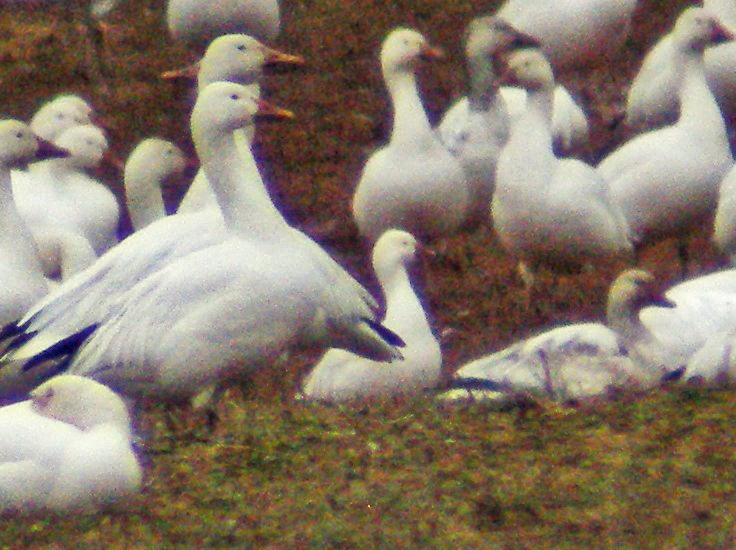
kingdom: Animalia
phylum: Chordata
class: Aves
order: Anseriformes
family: Anatidae
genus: Anser
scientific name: Anser rossii
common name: Ross's goose
